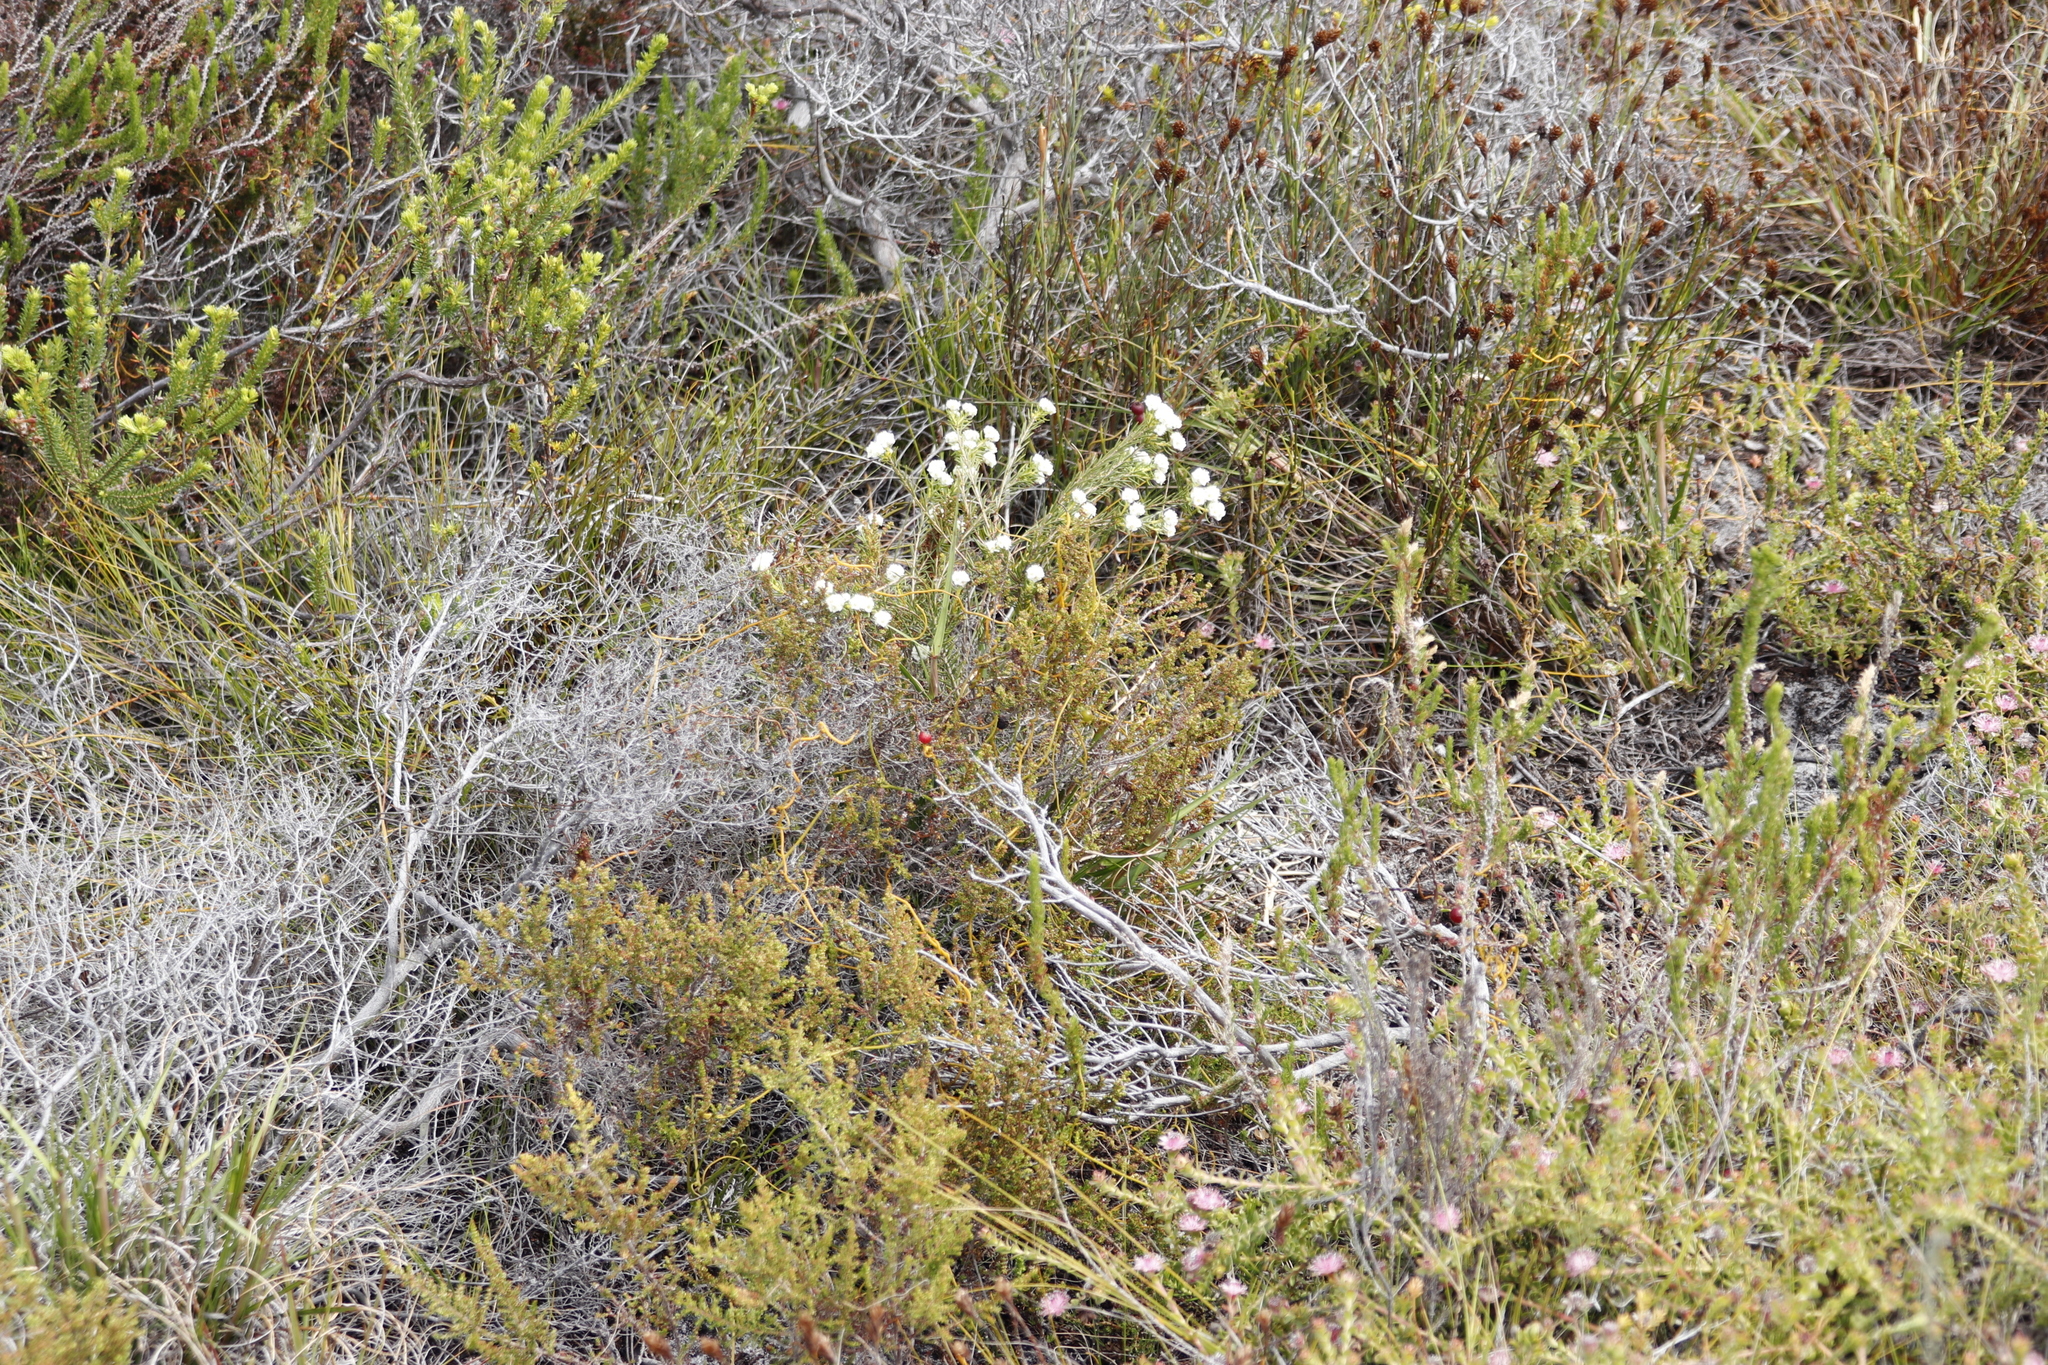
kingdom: Plantae
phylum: Tracheophyta
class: Magnoliopsida
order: Malvales
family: Thymelaeaceae
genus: Lachnaea
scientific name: Lachnaea densiflora
